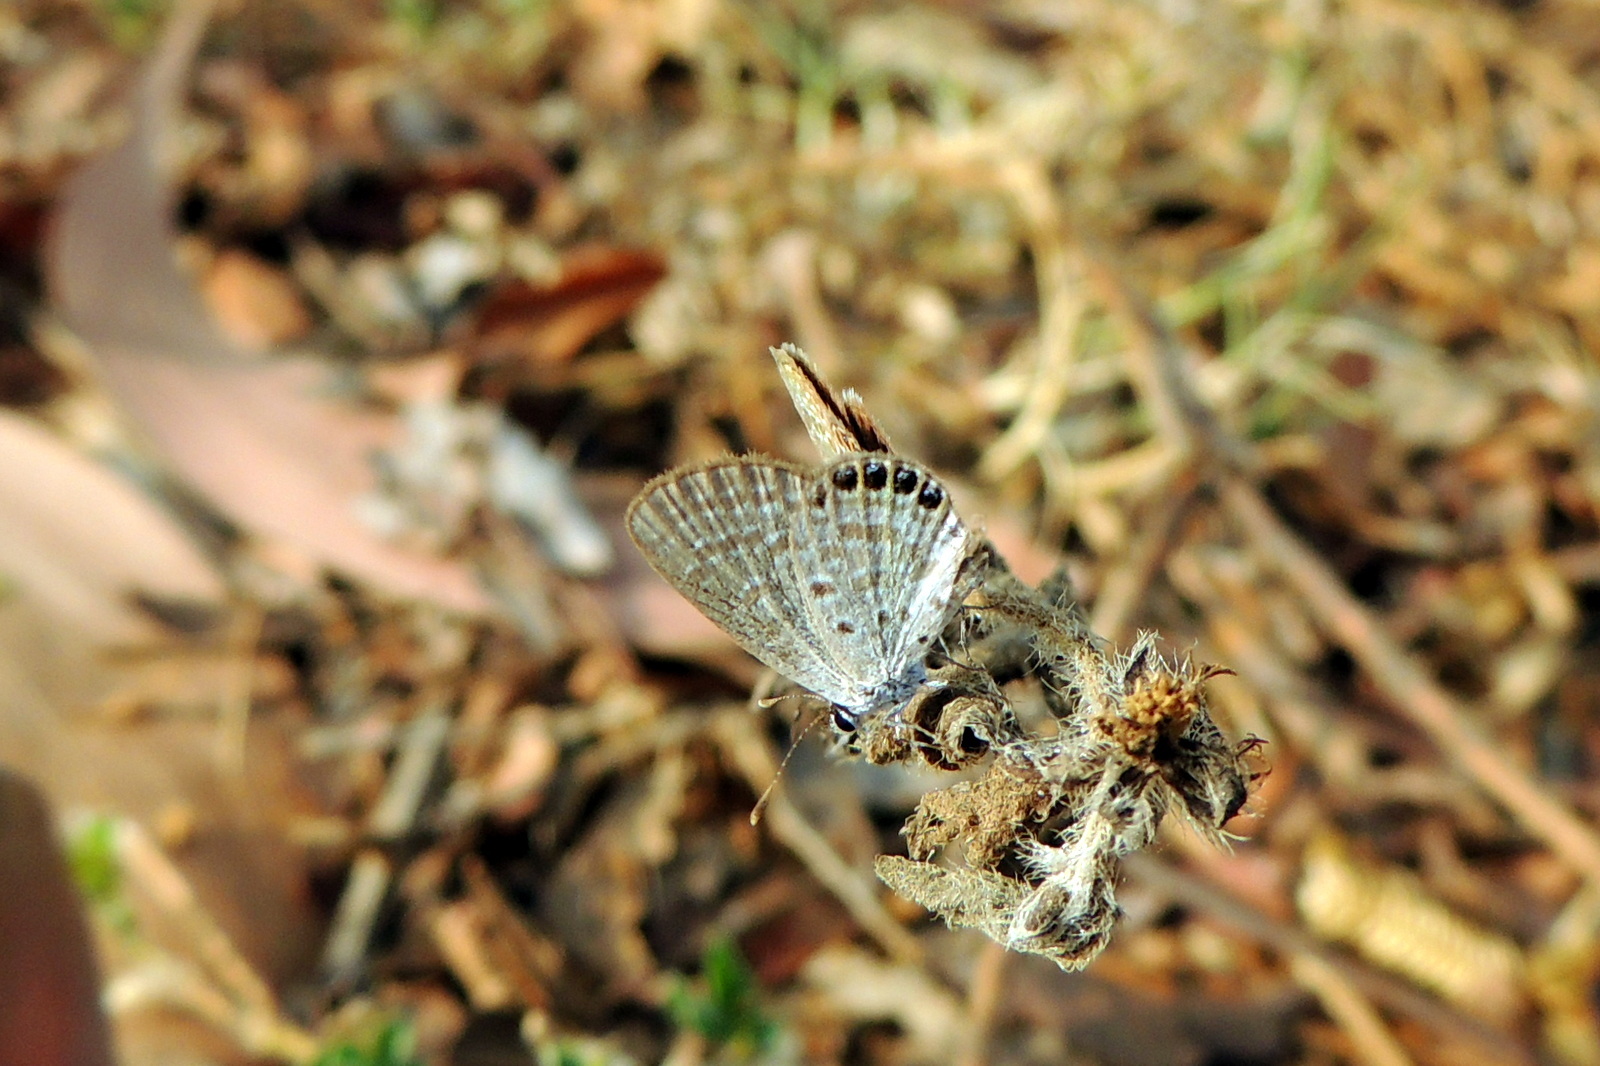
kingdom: Animalia
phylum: Arthropoda
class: Insecta
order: Lepidoptera
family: Lycaenidae
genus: Freyeria
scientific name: Freyeria putli
